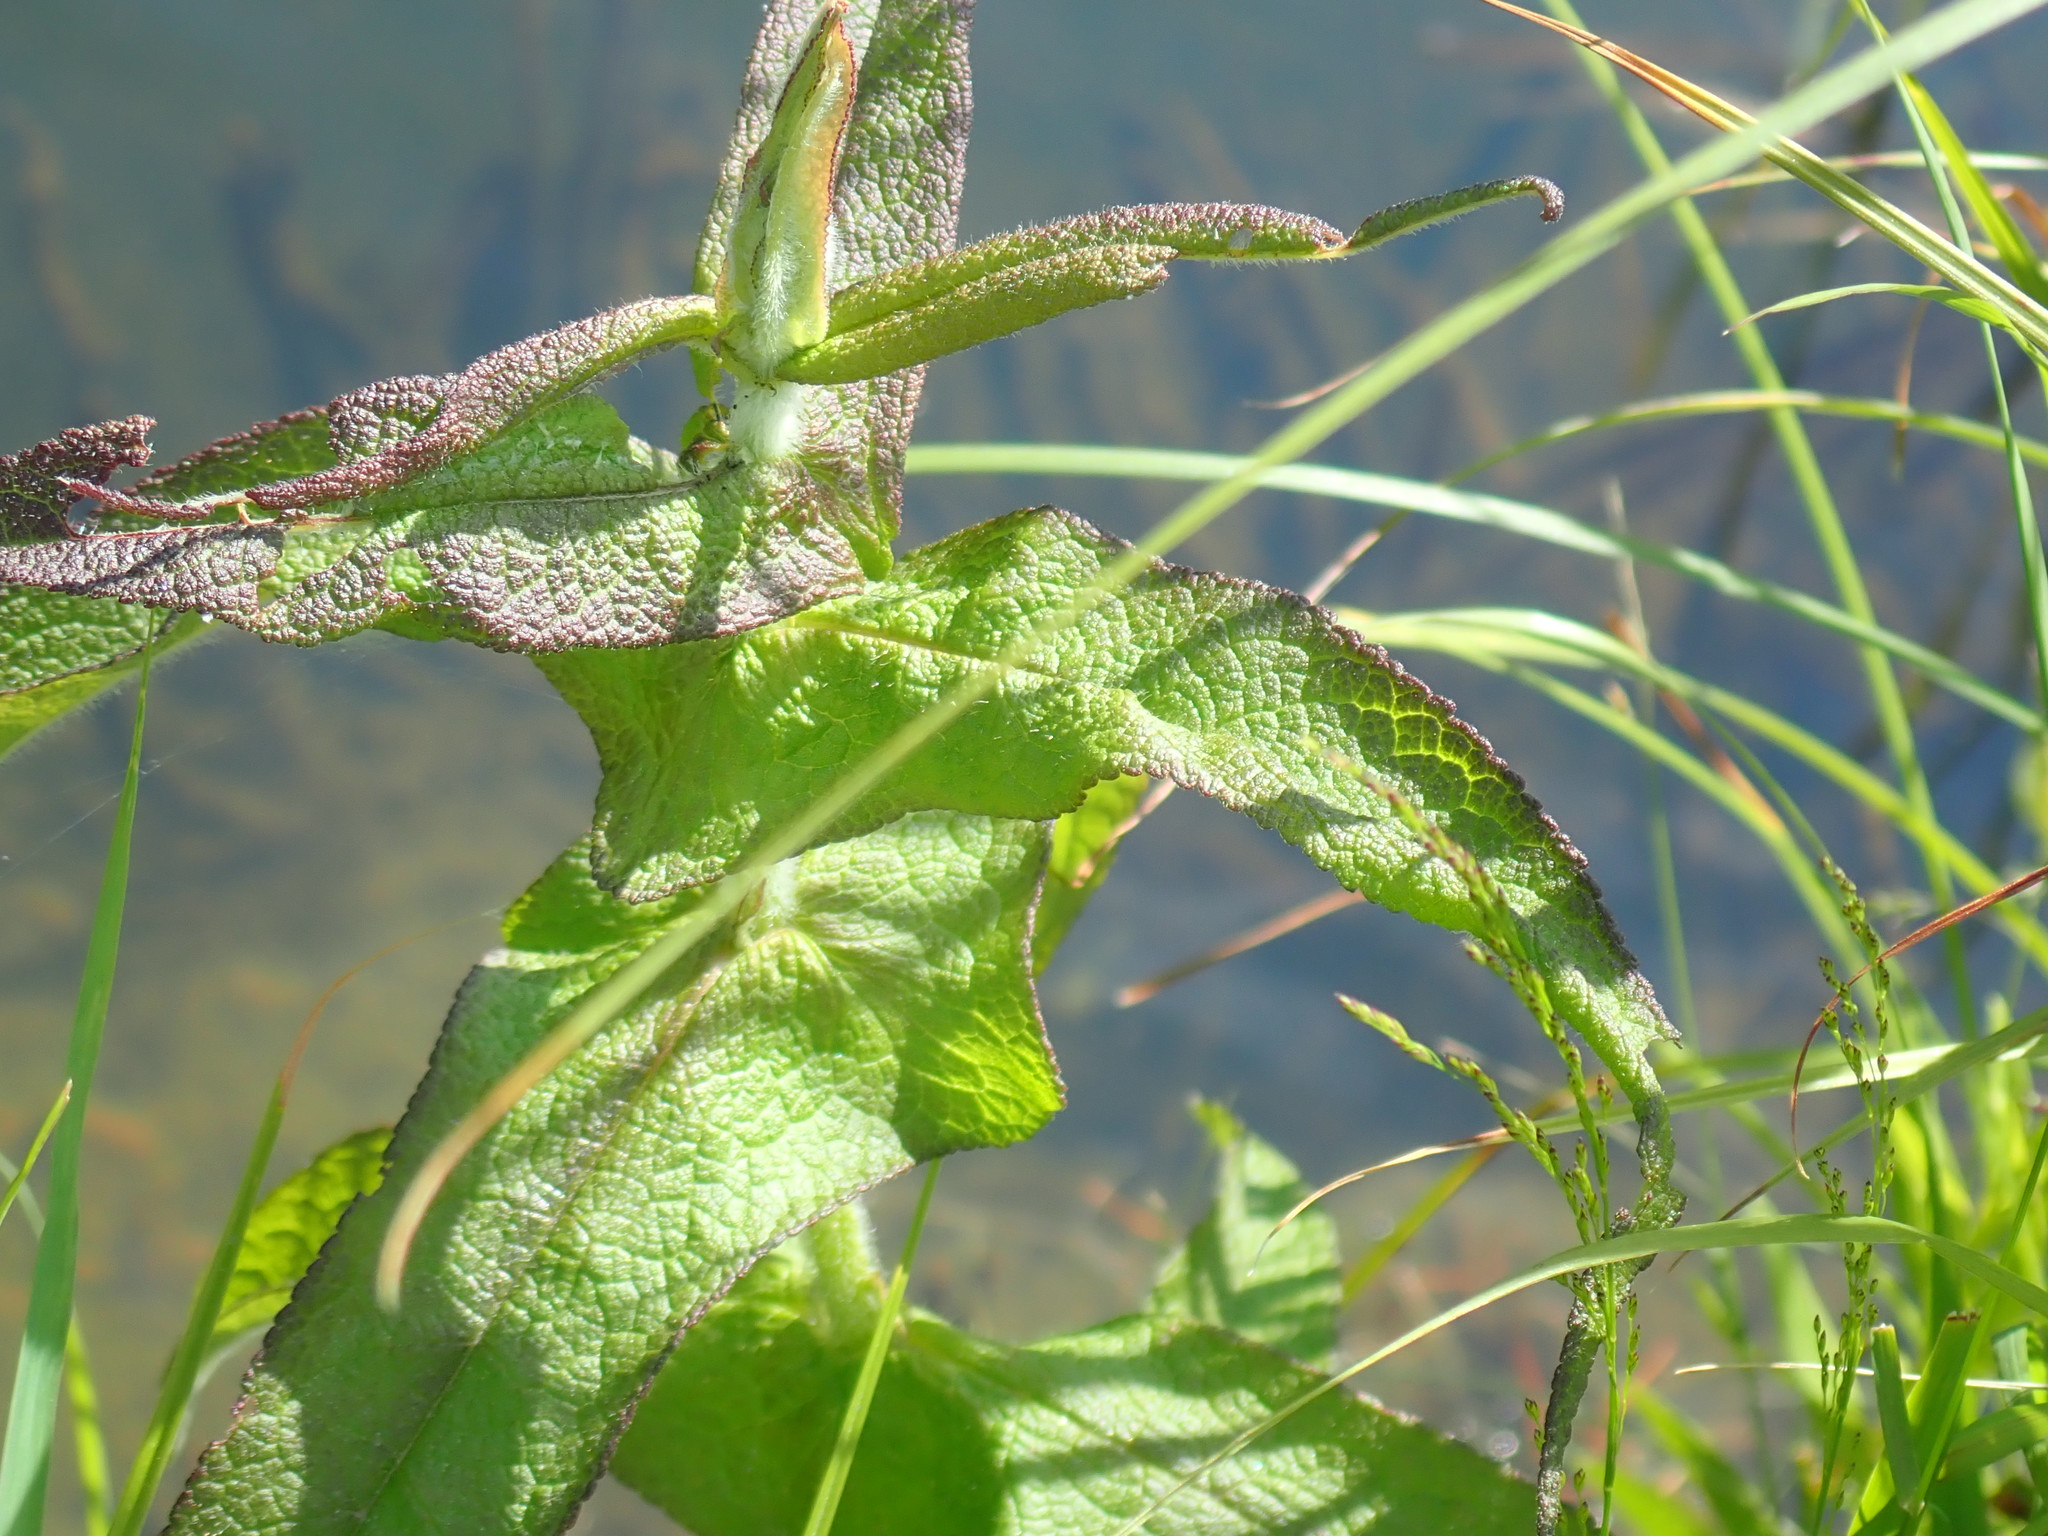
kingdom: Plantae
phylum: Tracheophyta
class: Magnoliopsida
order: Asterales
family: Asteraceae
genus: Eupatorium
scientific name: Eupatorium perfoliatum
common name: Boneset
